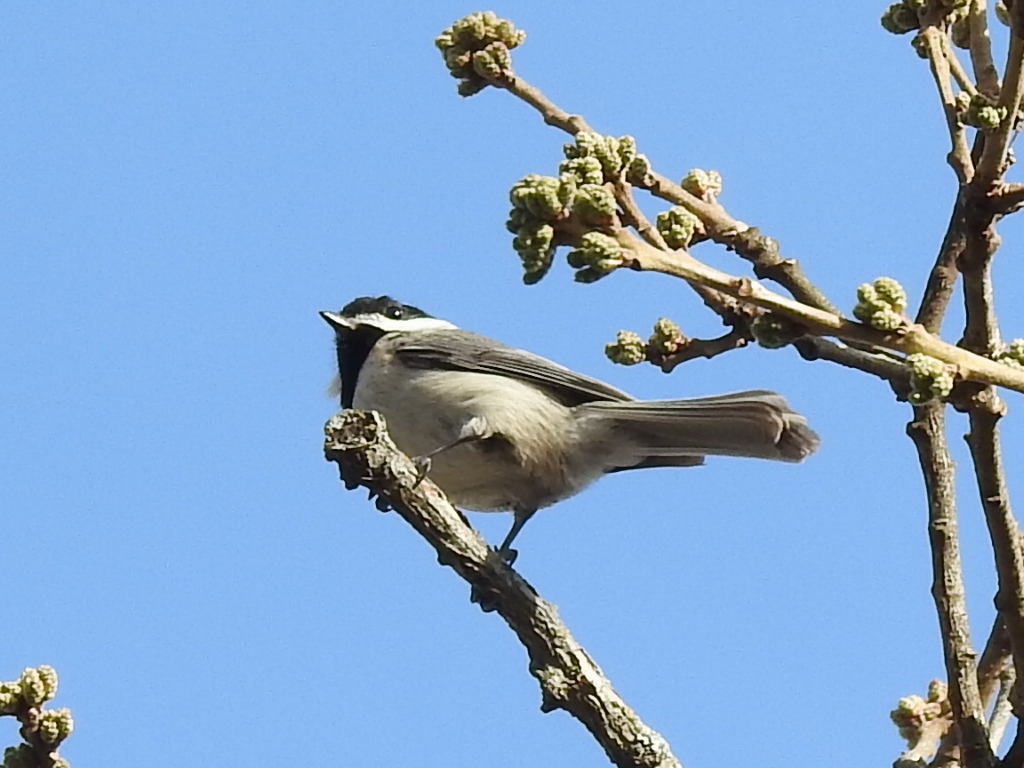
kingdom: Animalia
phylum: Chordata
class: Aves
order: Passeriformes
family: Paridae
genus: Poecile
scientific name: Poecile carolinensis
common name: Carolina chickadee
